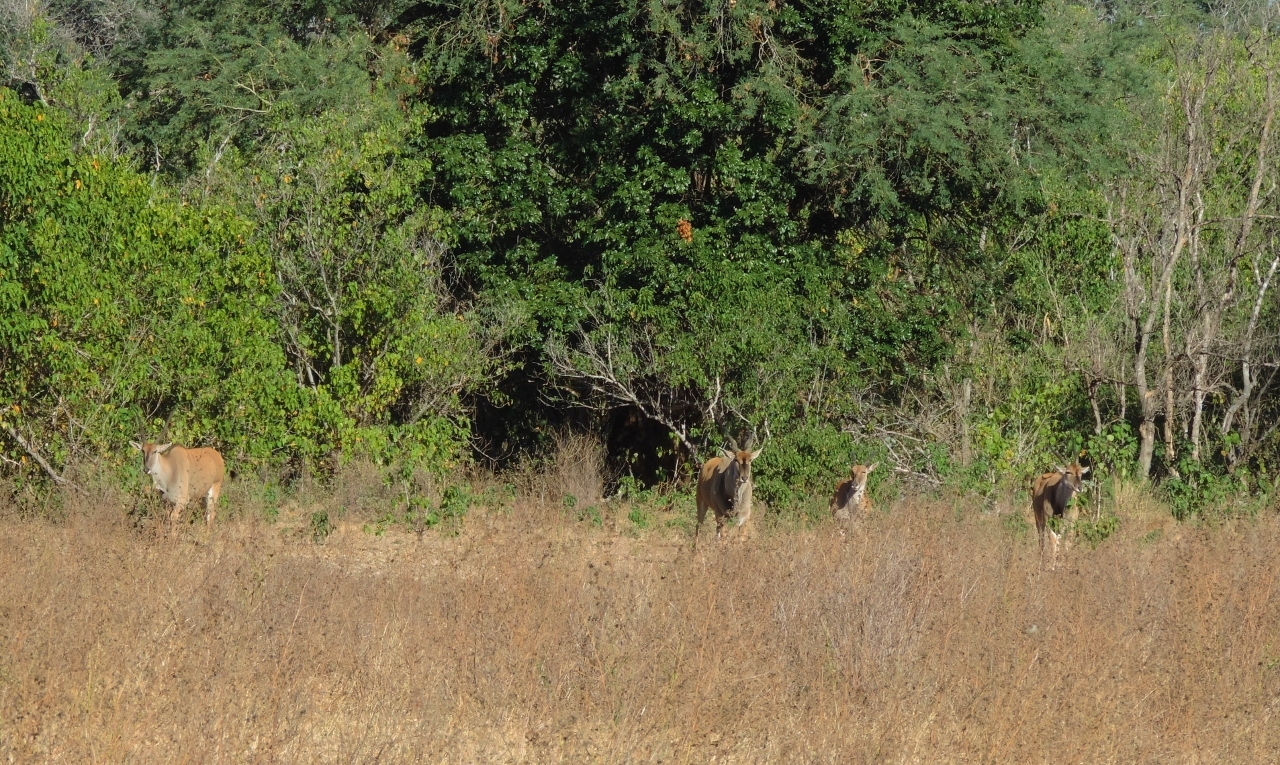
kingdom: Animalia
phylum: Chordata
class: Mammalia
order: Artiodactyla
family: Bovidae
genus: Taurotragus
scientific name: Taurotragus oryx
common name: Common eland
